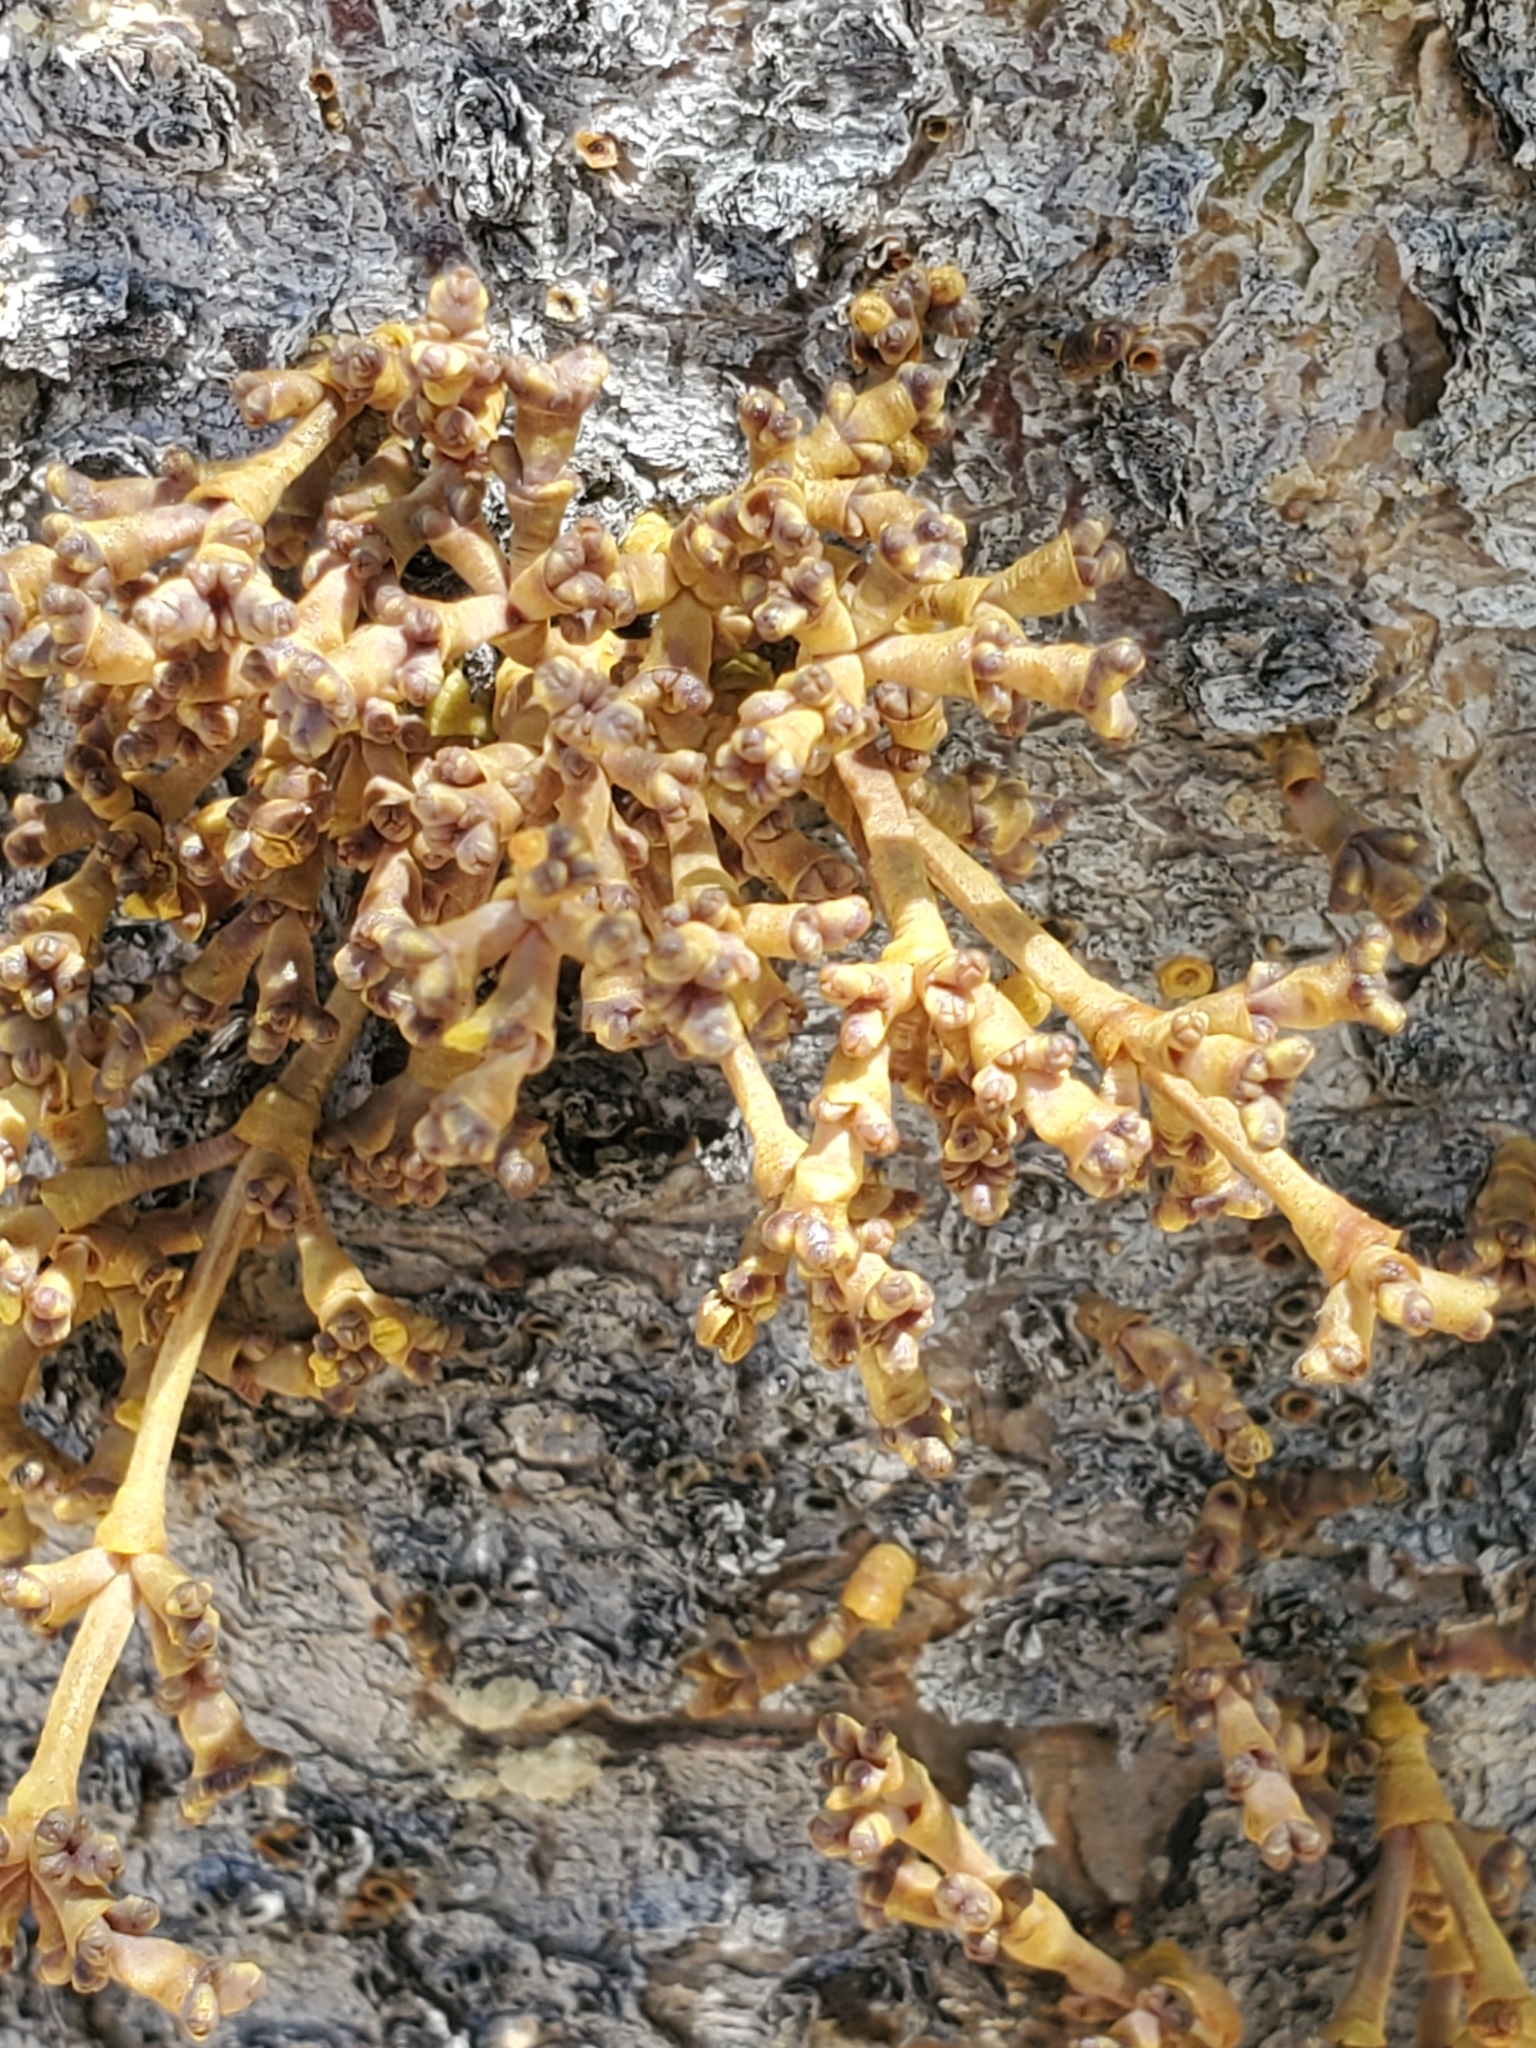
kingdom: Plantae
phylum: Tracheophyta
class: Magnoliopsida
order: Santalales
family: Viscaceae
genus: Arceuthobium
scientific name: Arceuthobium americanum
